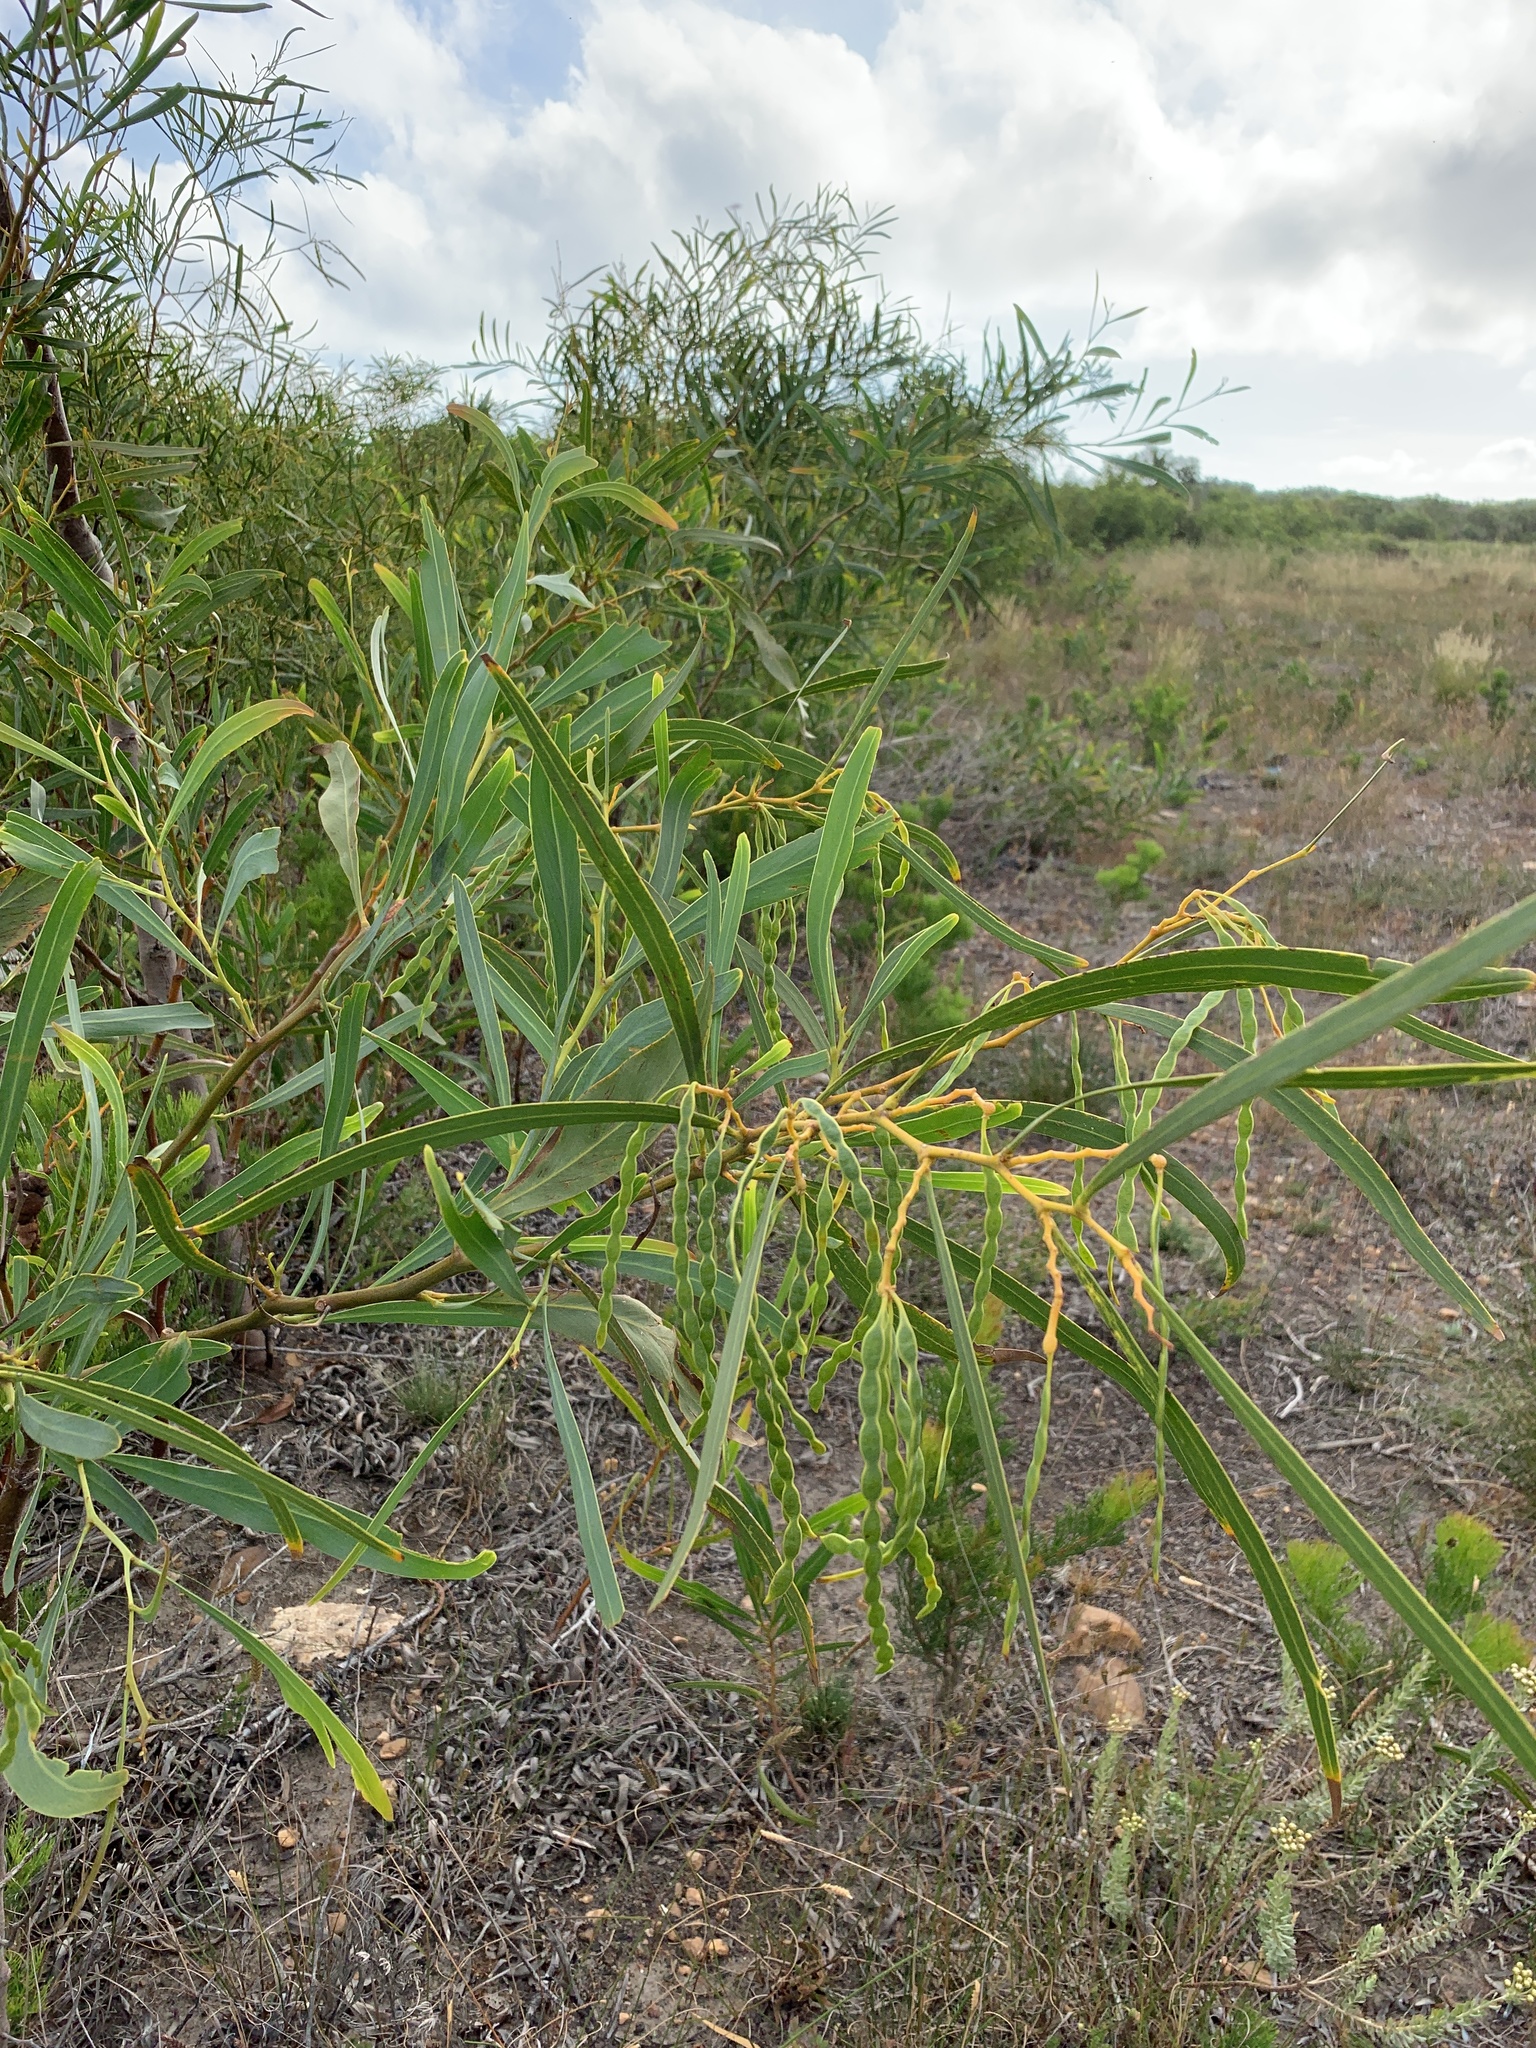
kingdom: Plantae
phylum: Tracheophyta
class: Magnoliopsida
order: Fabales
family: Fabaceae
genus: Acacia
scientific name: Acacia saligna
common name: Orange wattle
